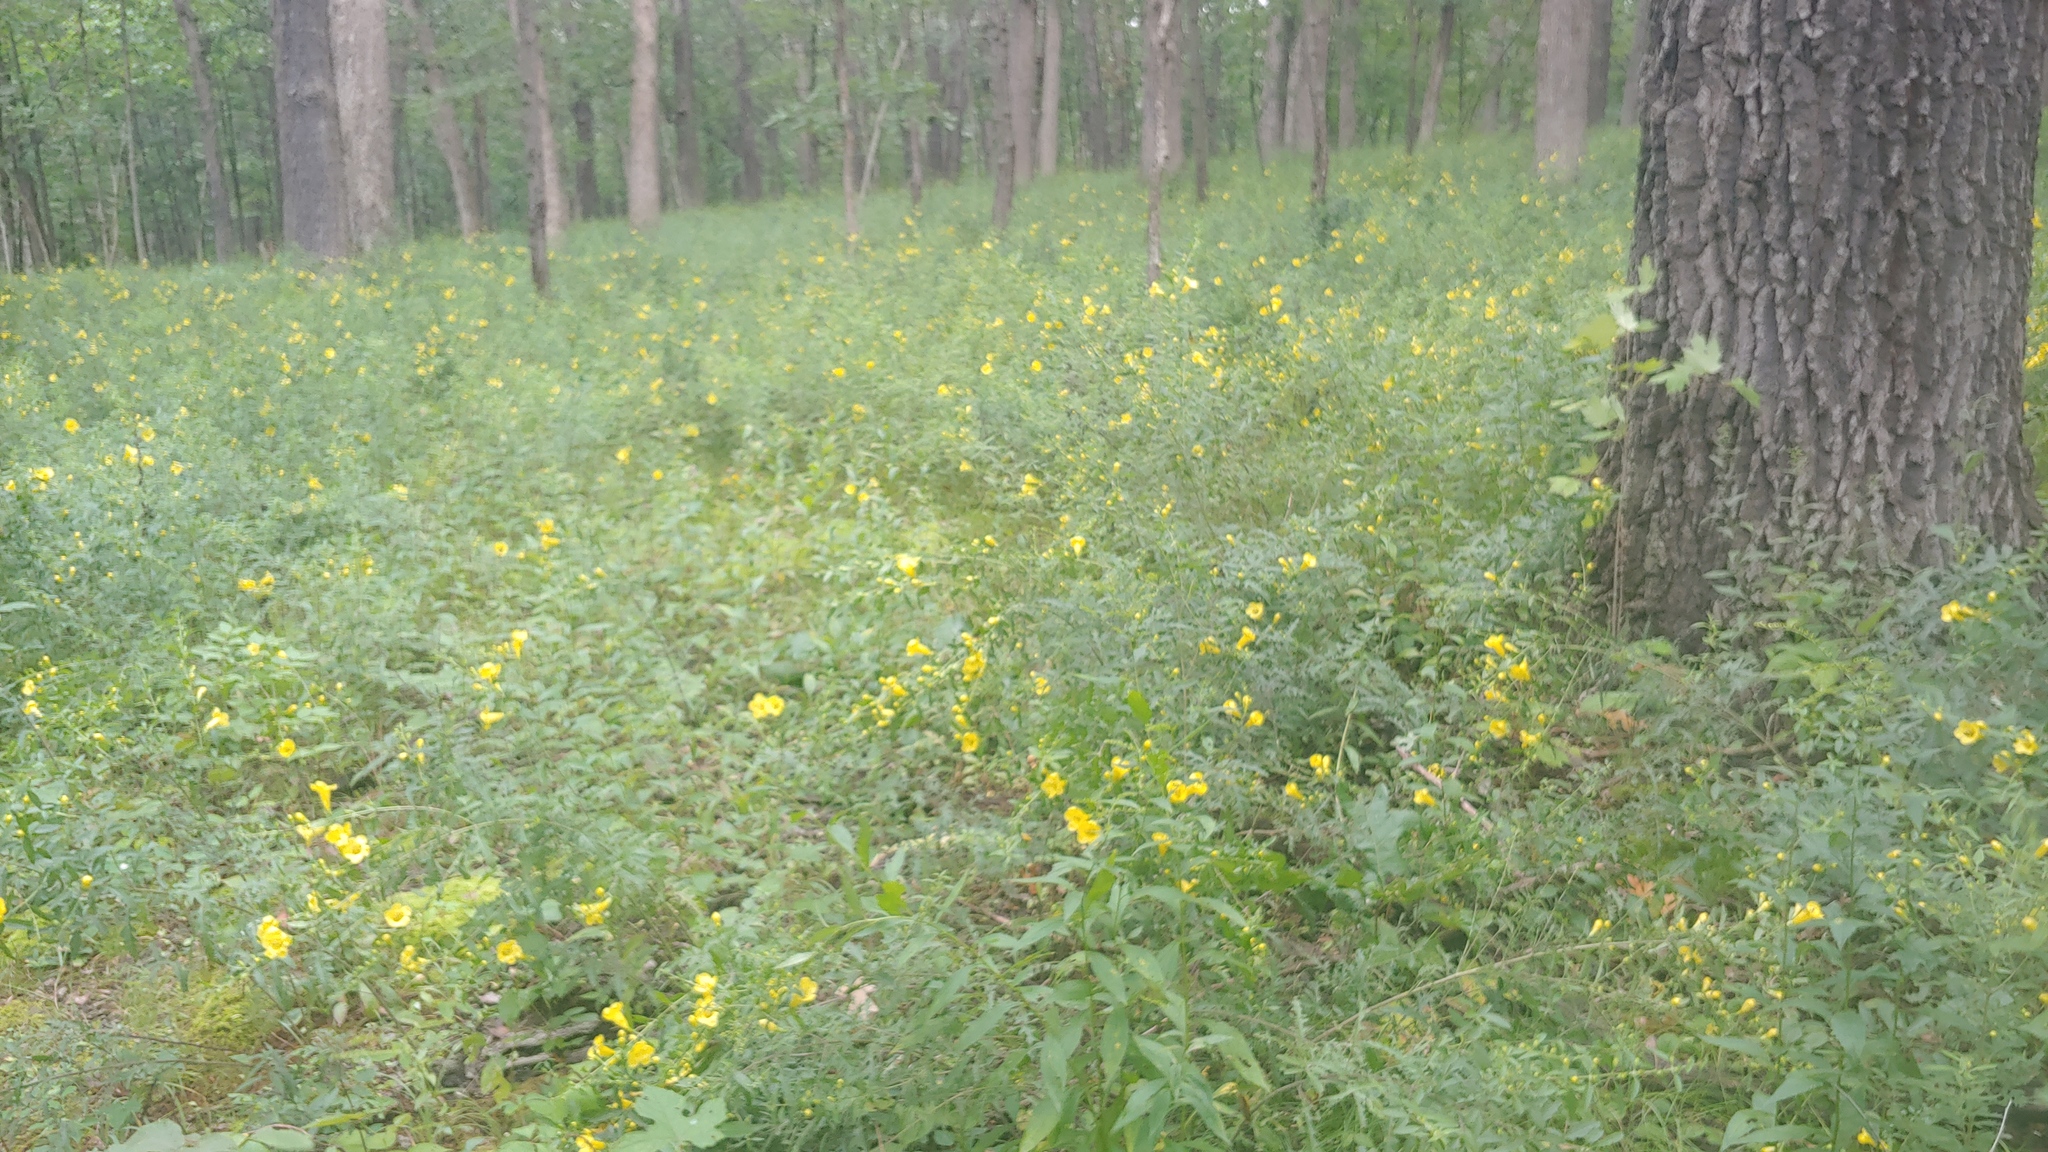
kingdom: Plantae
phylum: Tracheophyta
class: Magnoliopsida
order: Lamiales
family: Orobanchaceae
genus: Aureolaria
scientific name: Aureolaria grandiflora
